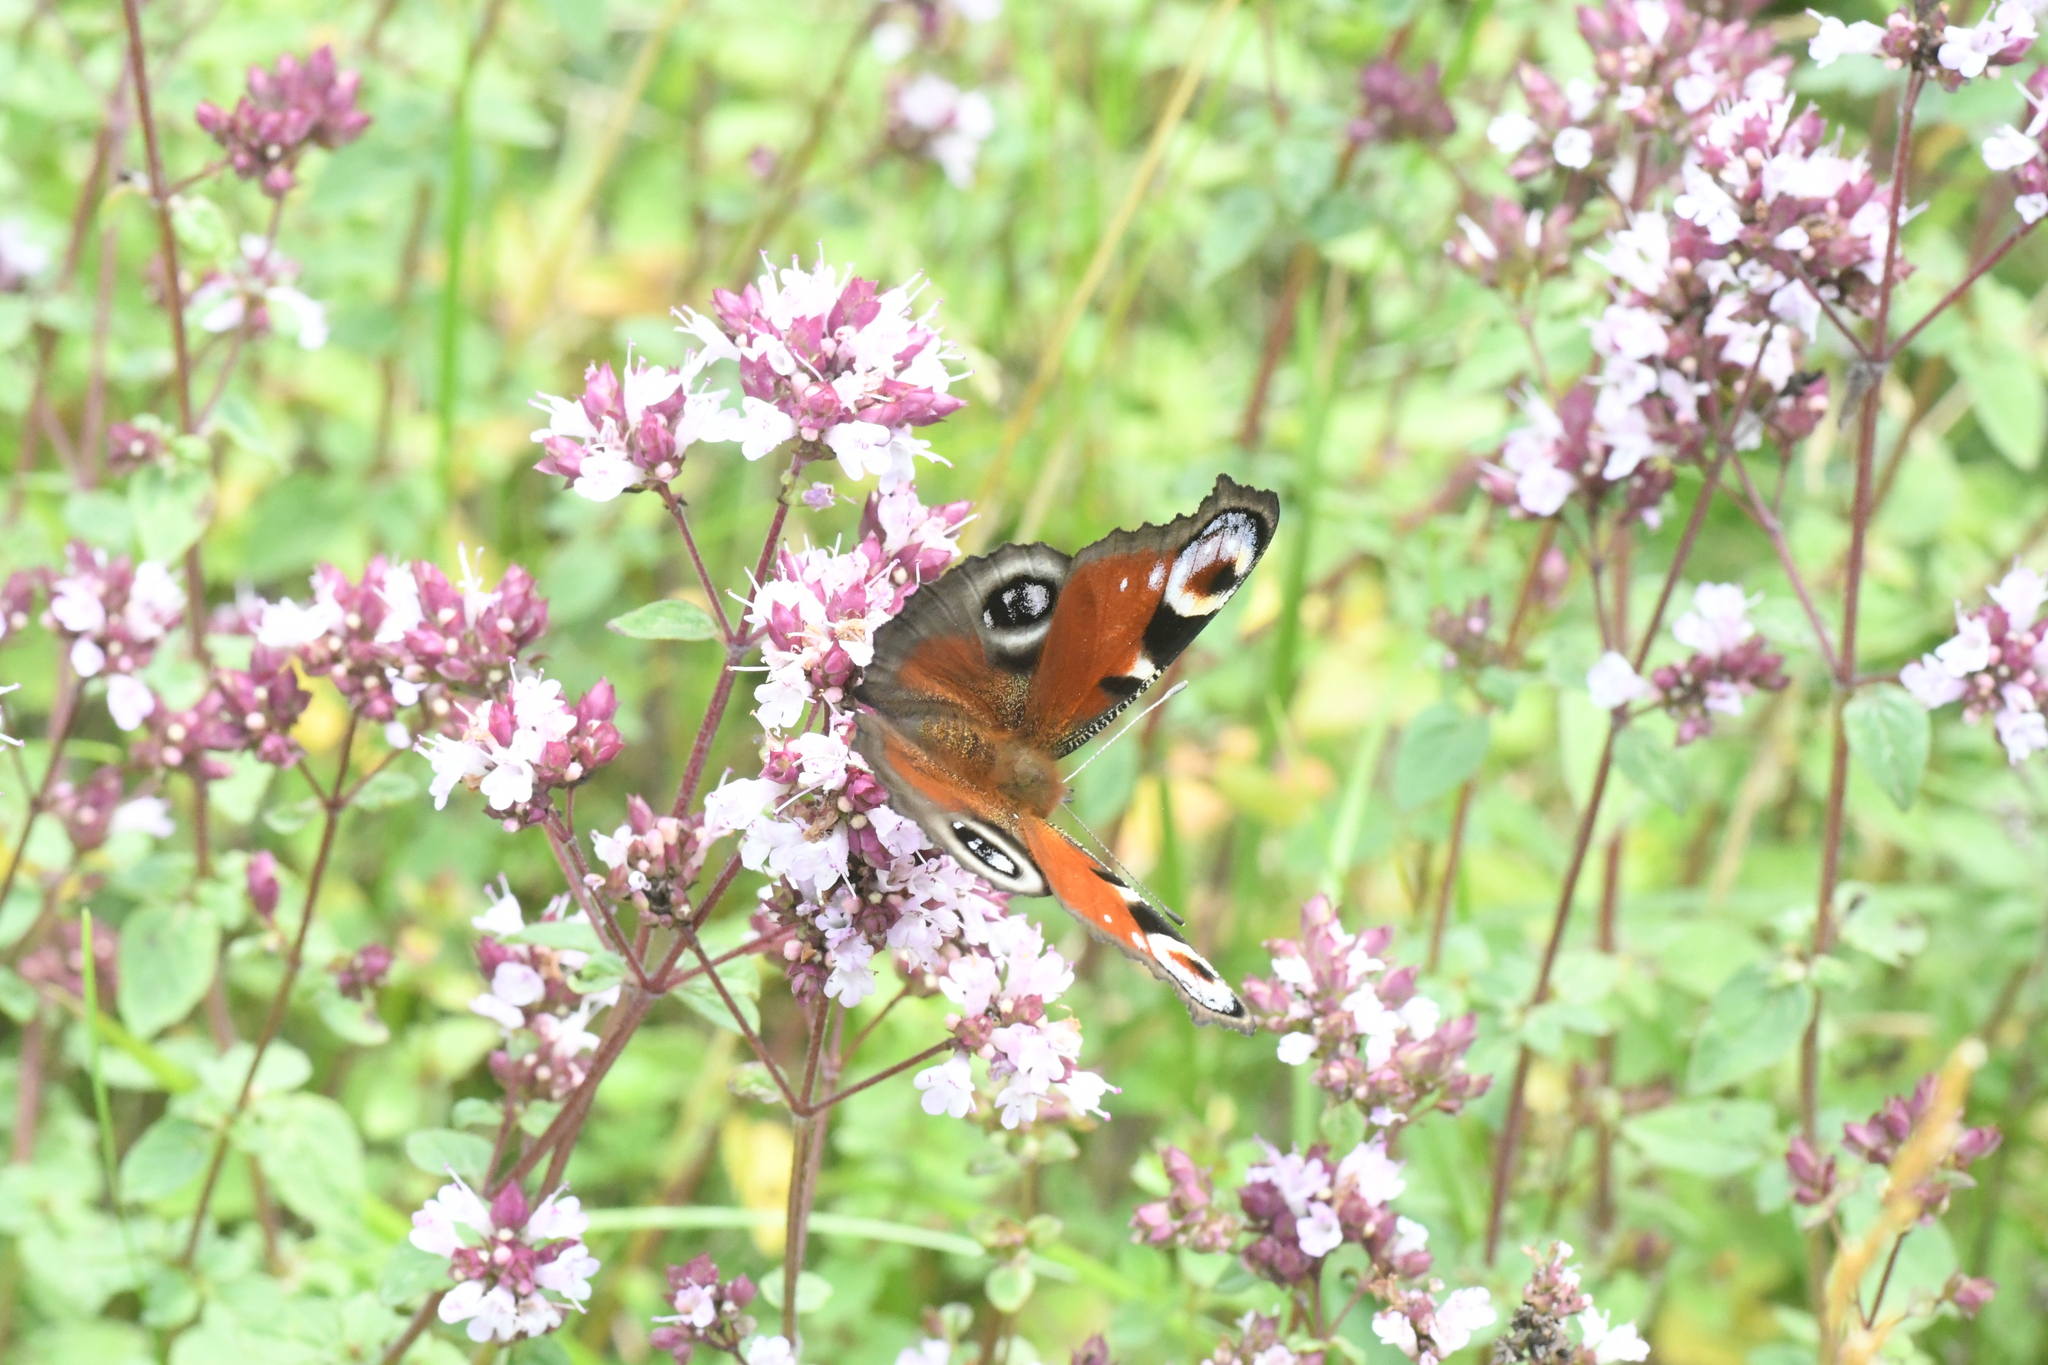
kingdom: Animalia
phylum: Arthropoda
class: Insecta
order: Lepidoptera
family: Nymphalidae
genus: Aglais
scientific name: Aglais io
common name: Peacock
